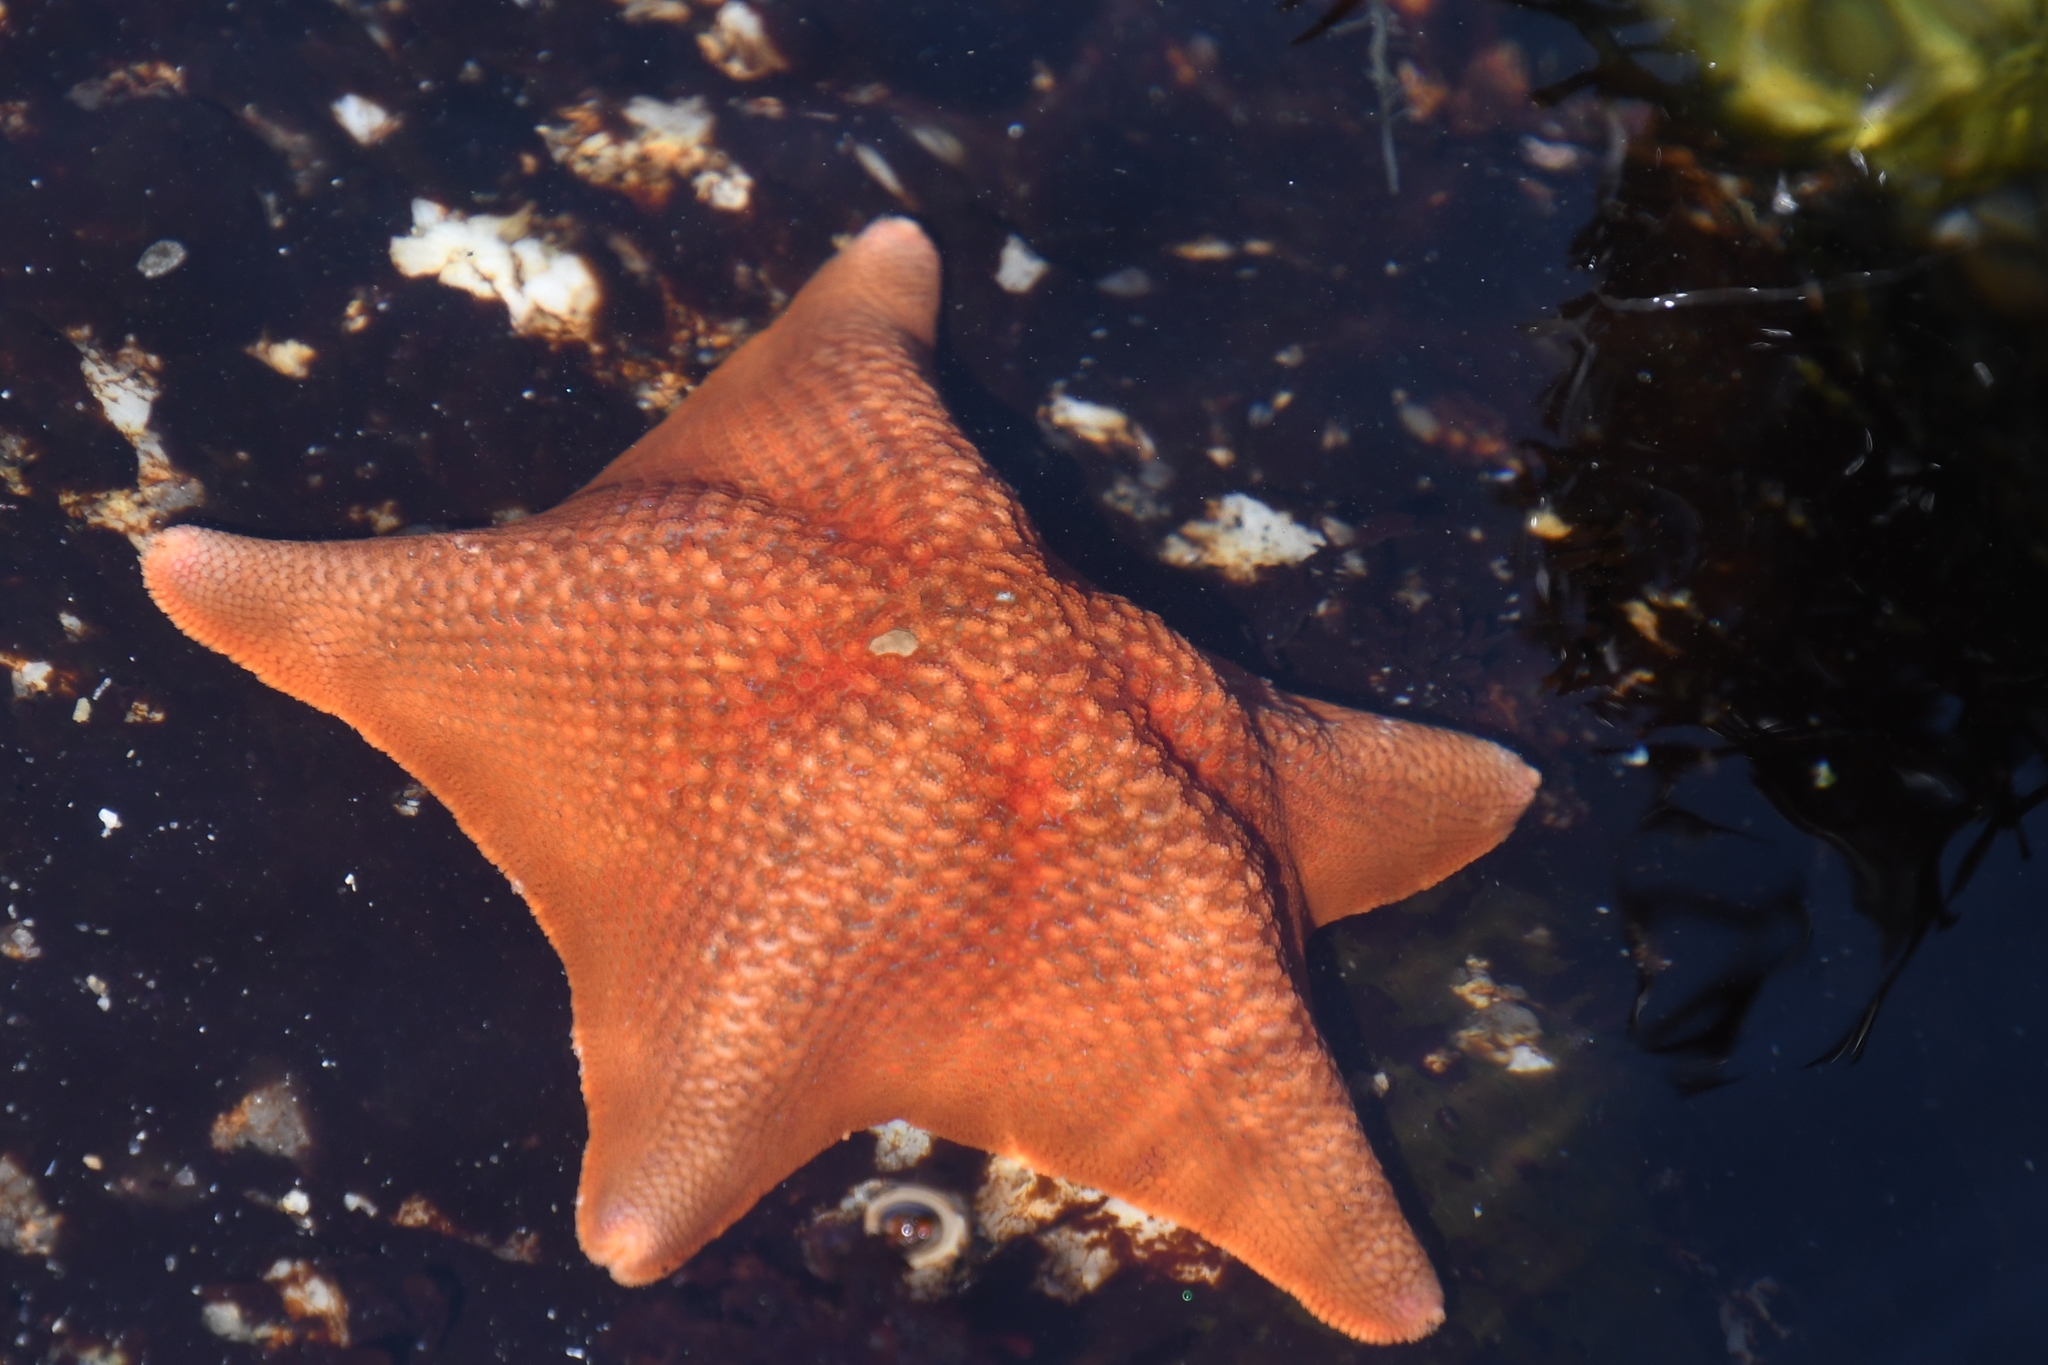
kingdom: Animalia
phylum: Echinodermata
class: Asteroidea
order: Valvatida
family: Asterinidae
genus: Patiria
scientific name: Patiria miniata
